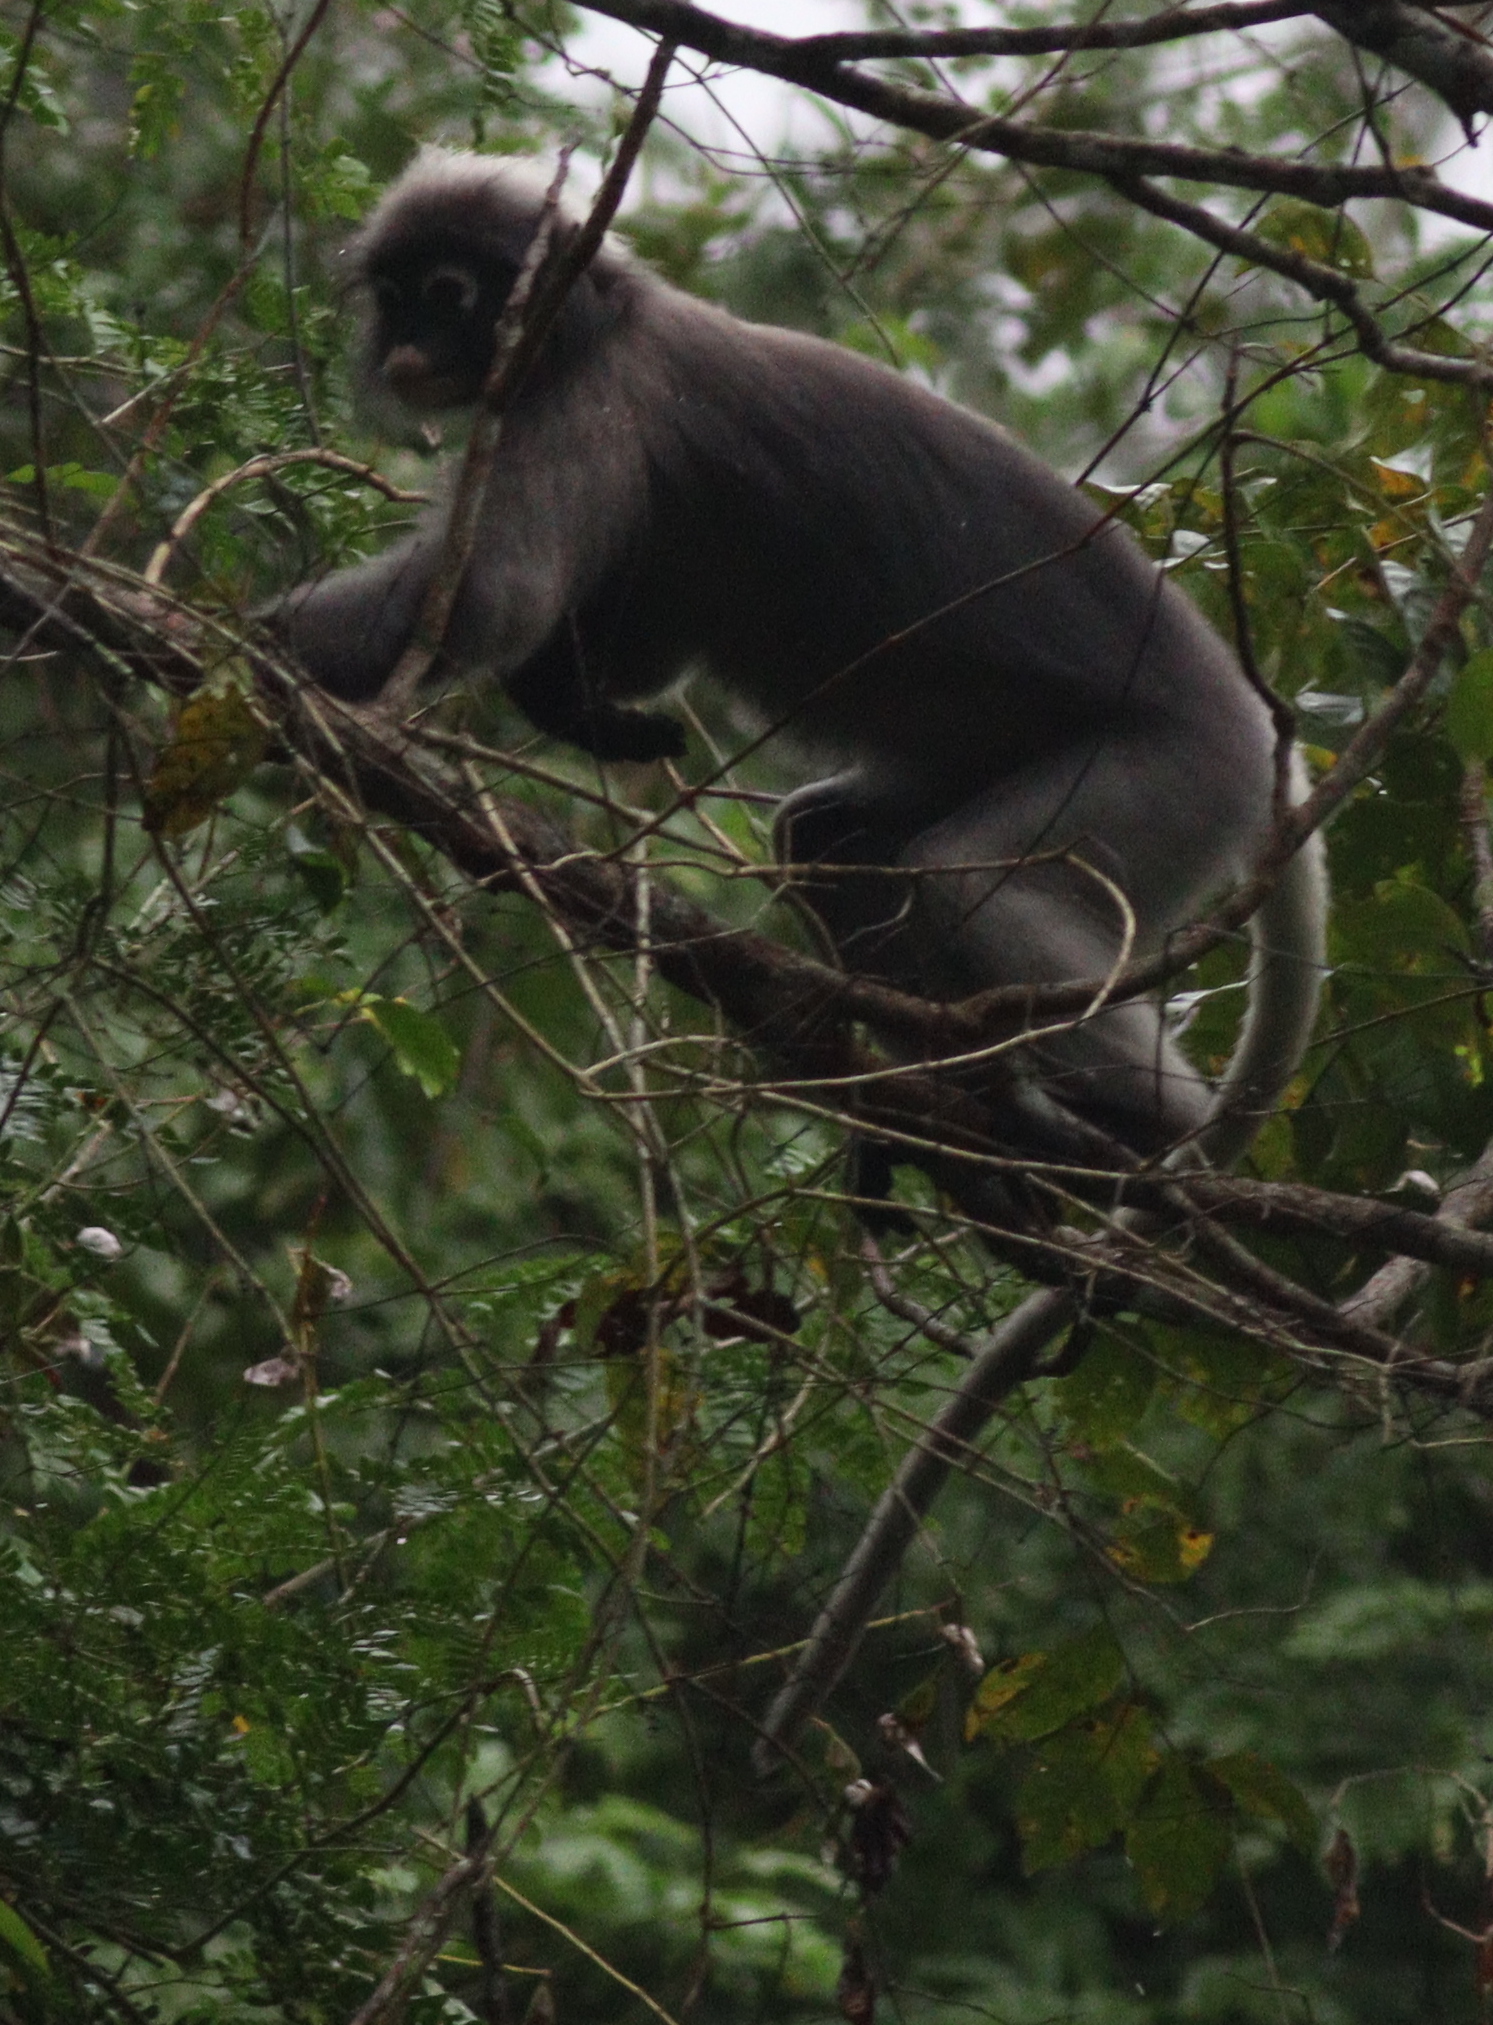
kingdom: Animalia
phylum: Chordata
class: Mammalia
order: Primates
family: Cercopithecidae
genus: Trachypithecus
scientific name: Trachypithecus obscurus
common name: Dusky leaf-monkey
